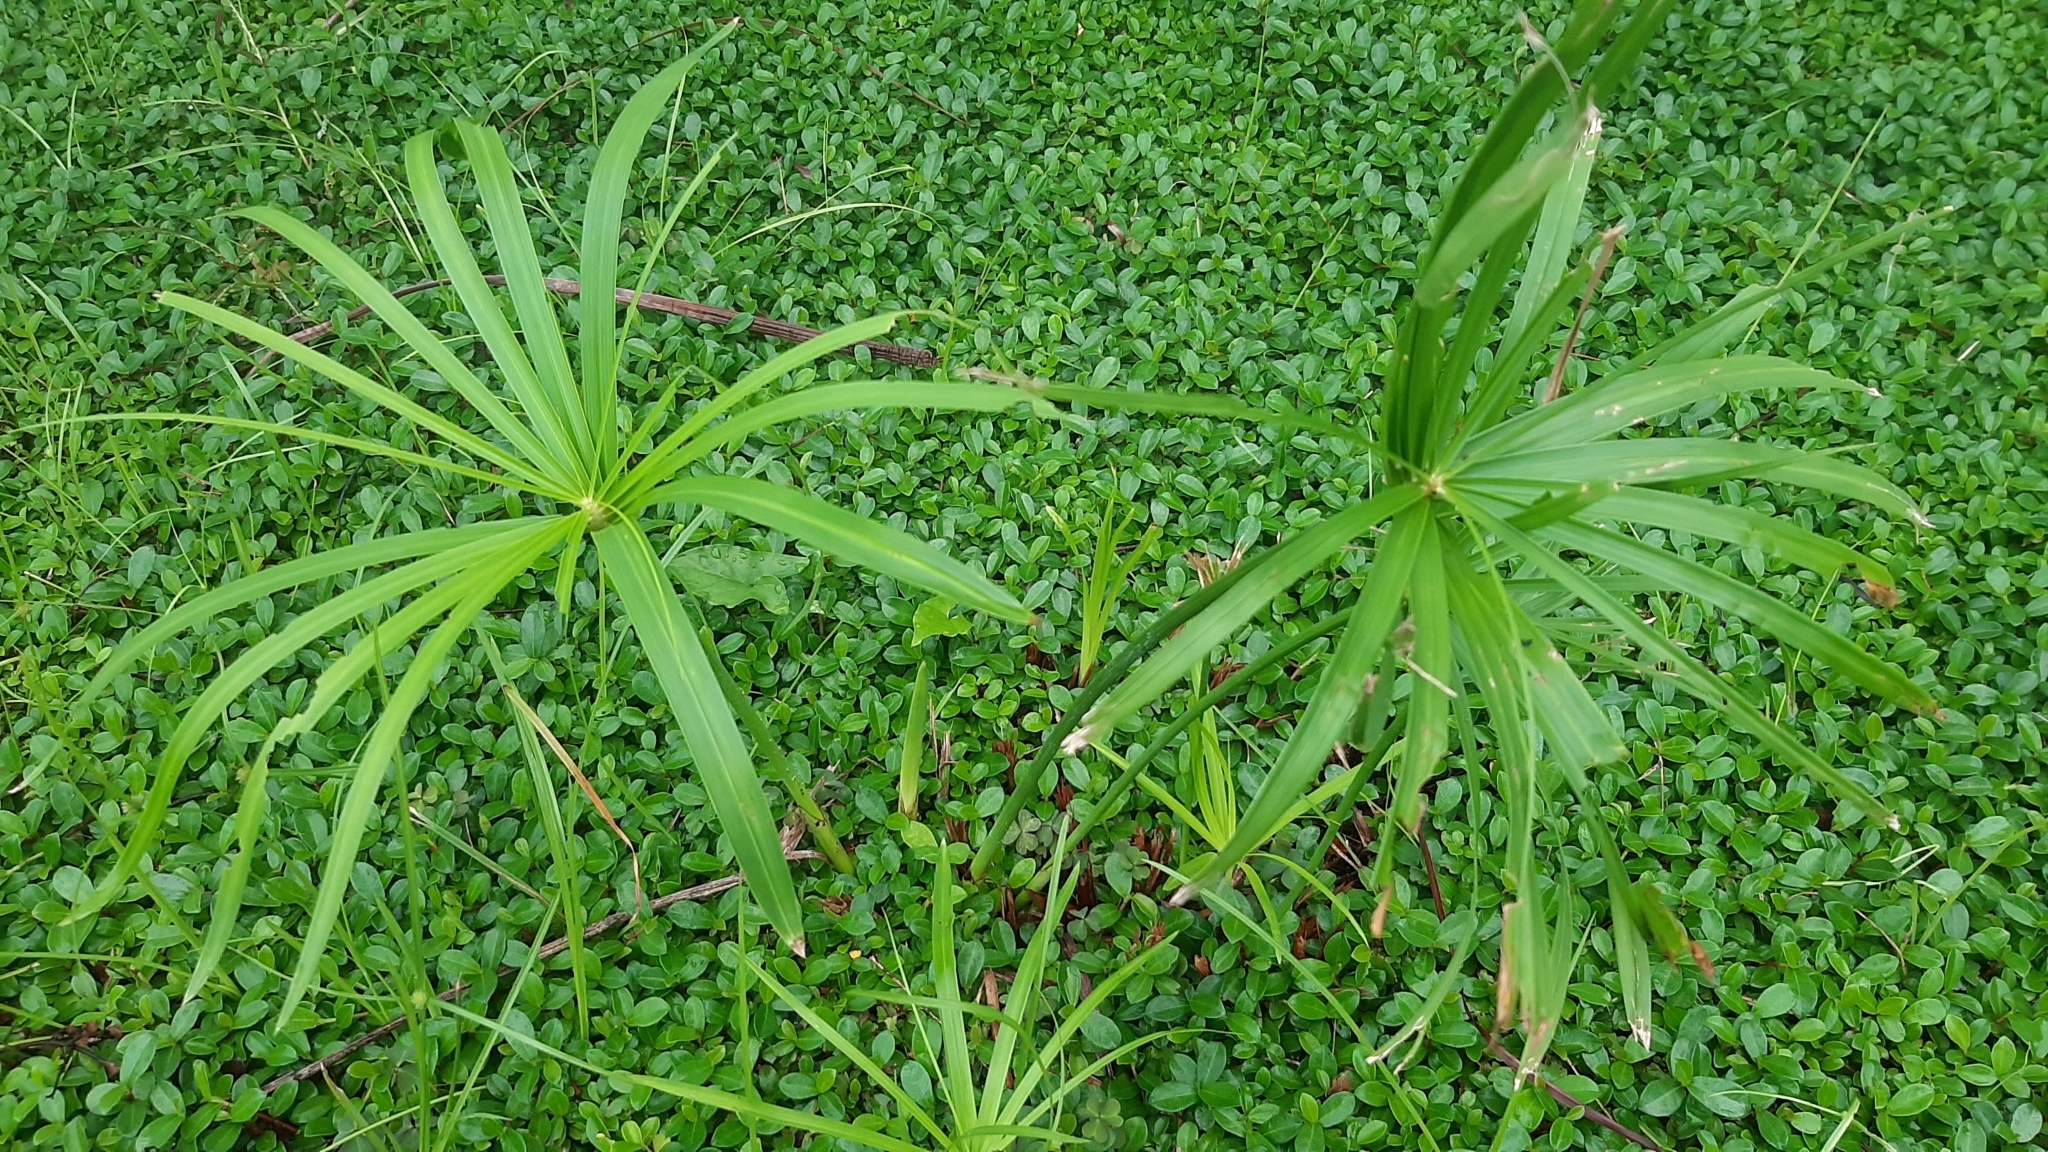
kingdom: Plantae
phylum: Tracheophyta
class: Liliopsida
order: Poales
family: Cyperaceae
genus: Cyperus
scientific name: Cyperus alternifolius
